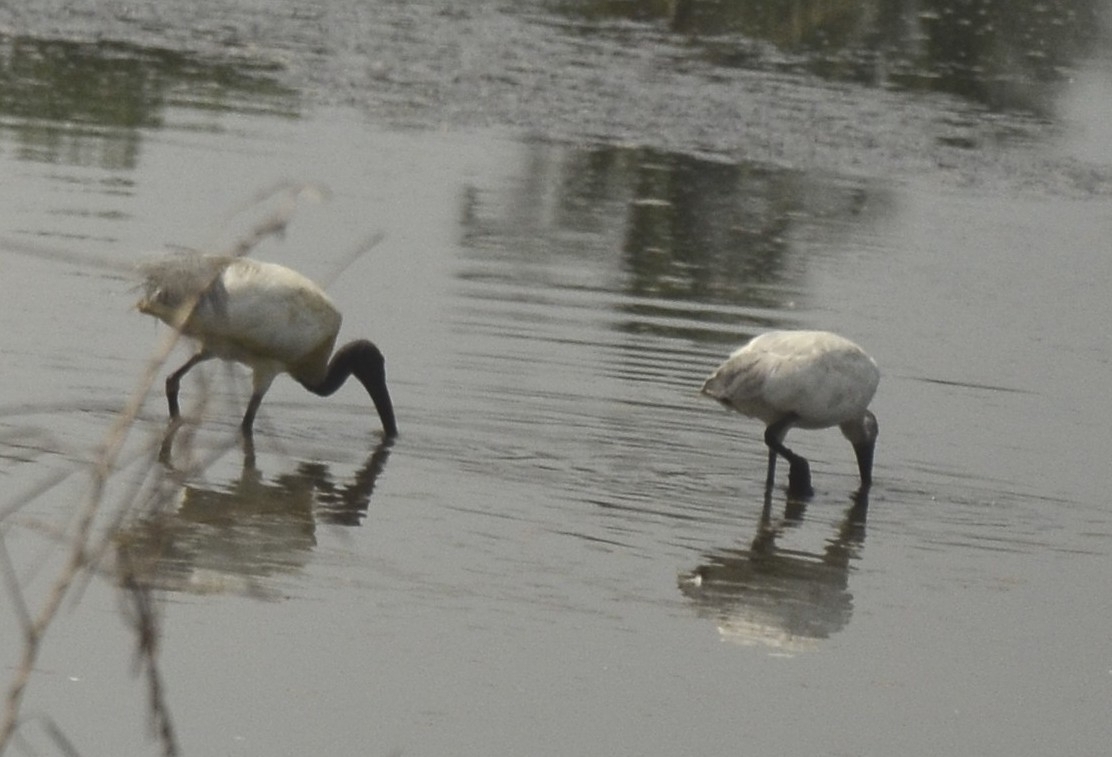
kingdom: Animalia
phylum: Chordata
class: Aves
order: Pelecaniformes
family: Threskiornithidae
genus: Threskiornis
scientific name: Threskiornis melanocephalus
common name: Black-headed ibis
